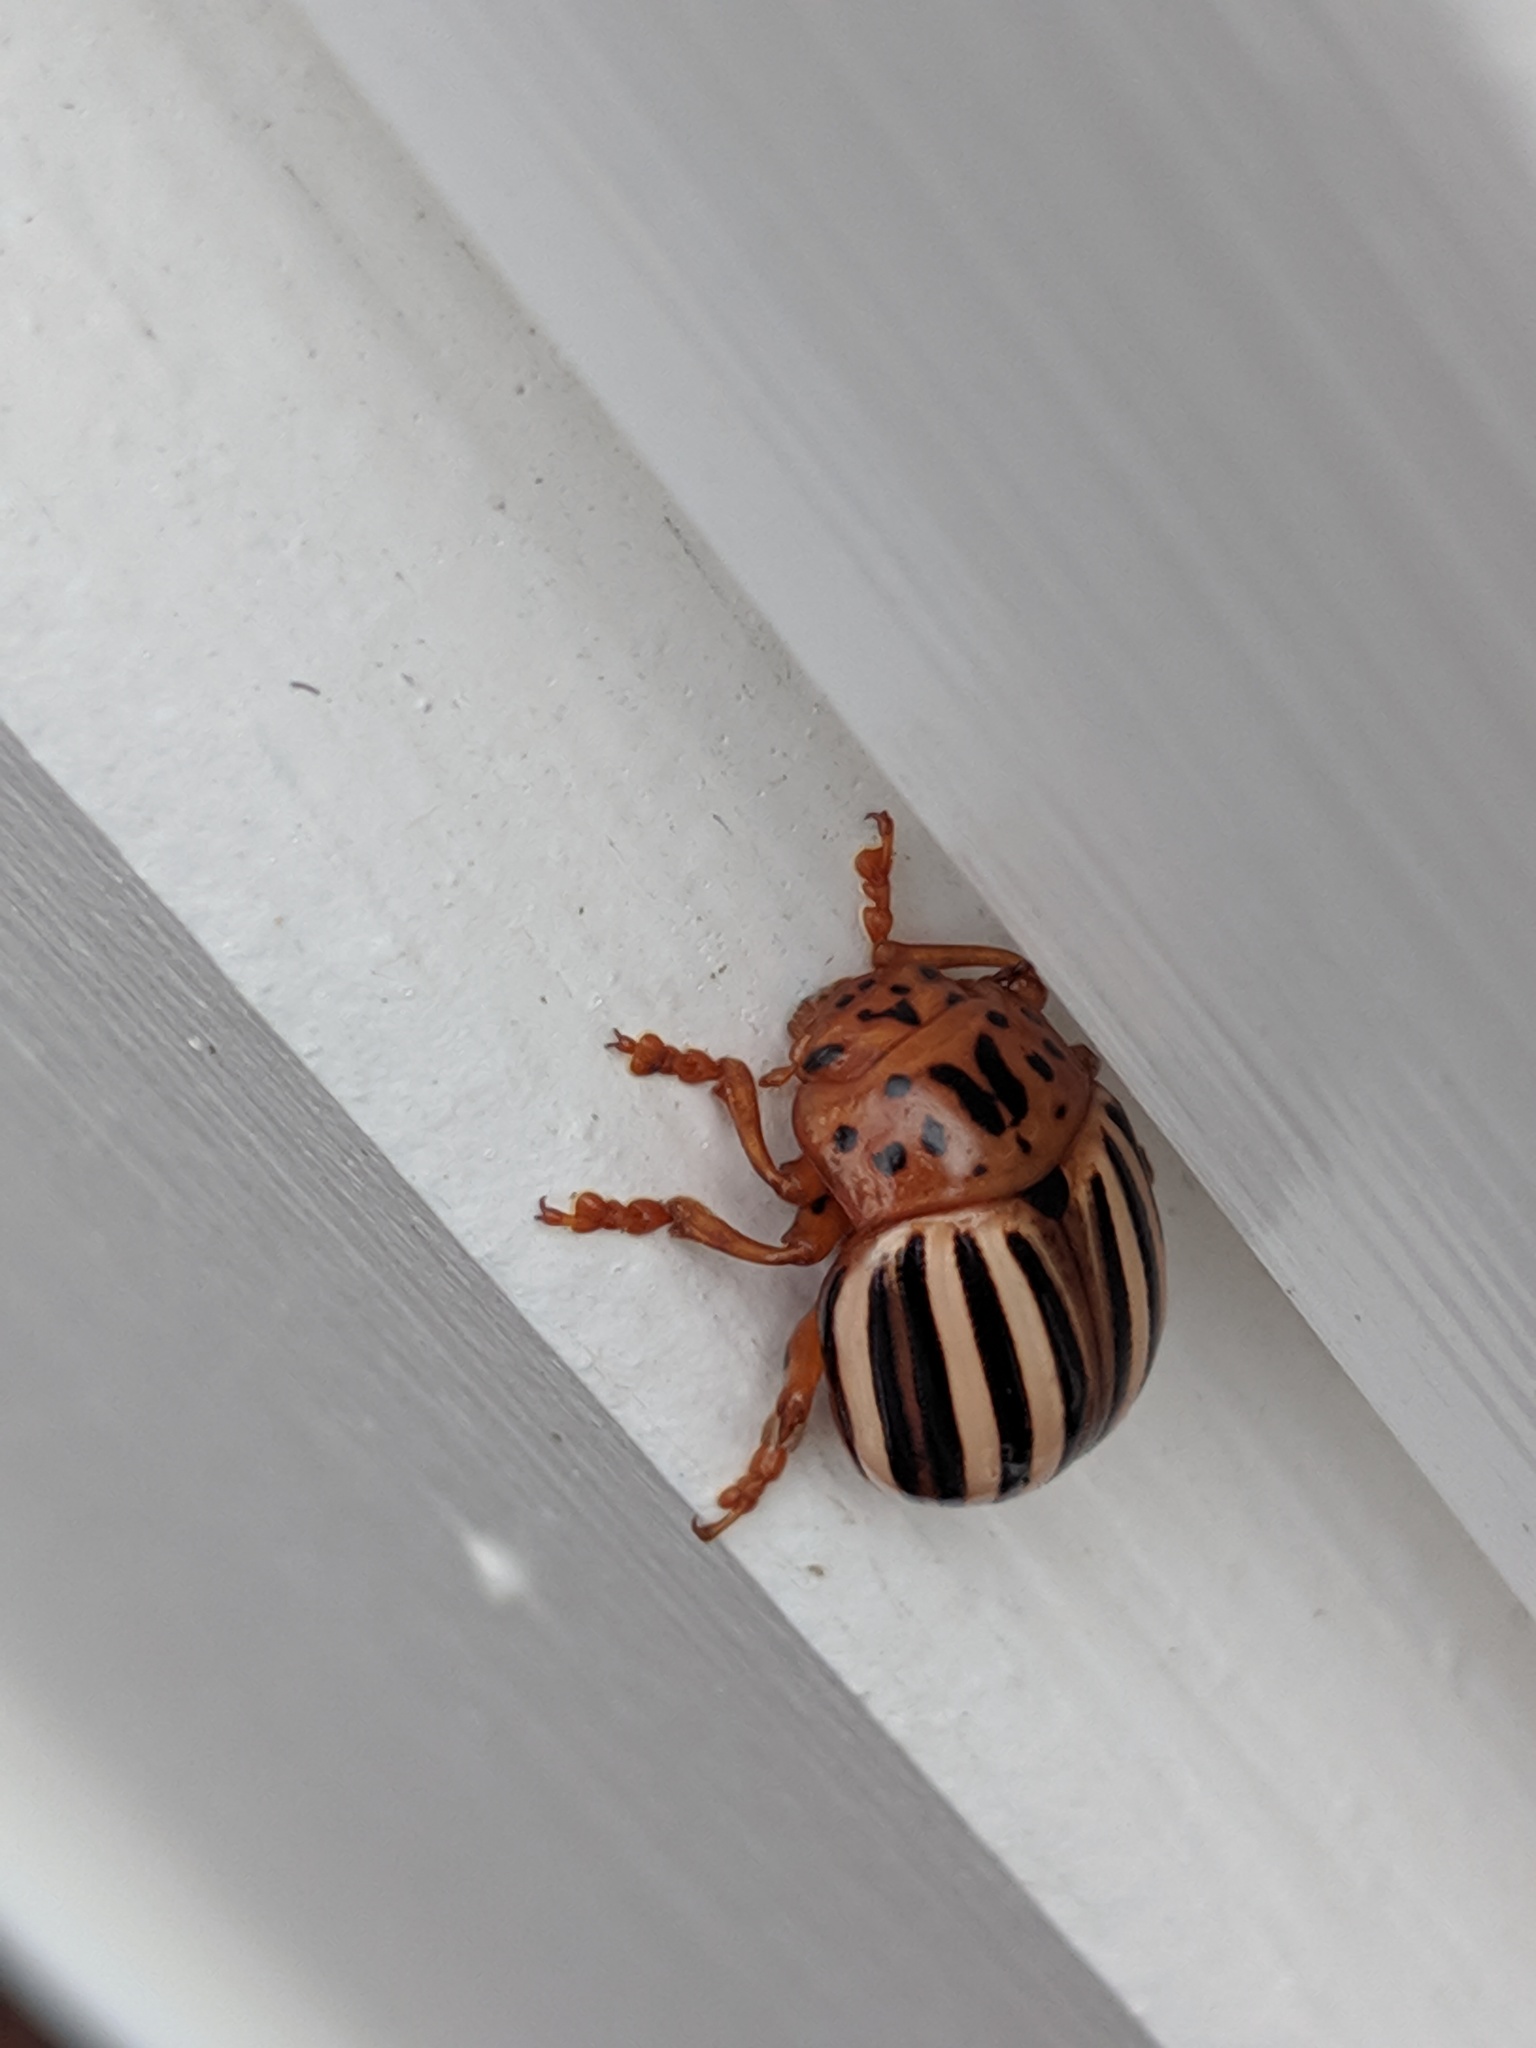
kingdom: Animalia
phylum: Arthropoda
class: Insecta
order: Coleoptera
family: Chrysomelidae
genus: Leptinotarsa
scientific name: Leptinotarsa juncta
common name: False potato beetle
